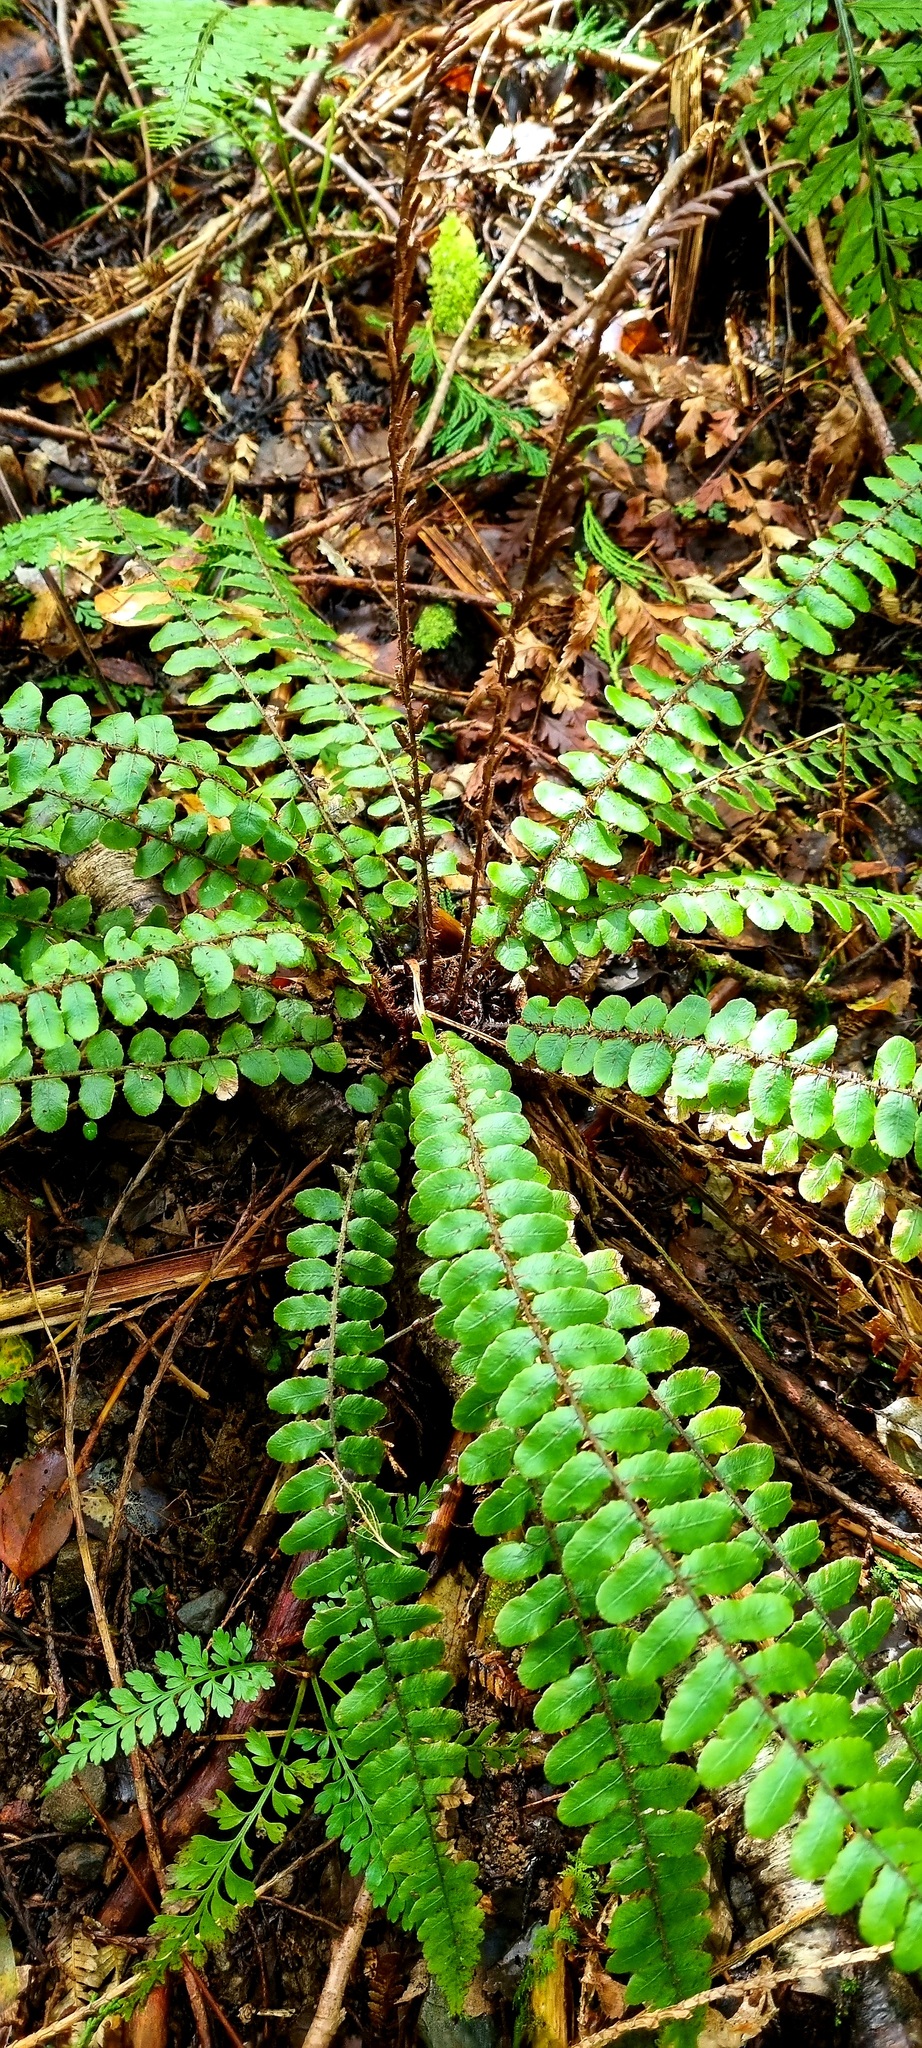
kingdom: Plantae
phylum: Tracheophyta
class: Polypodiopsida
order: Polypodiales
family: Blechnaceae
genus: Cranfillia
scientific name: Cranfillia fluviatilis
